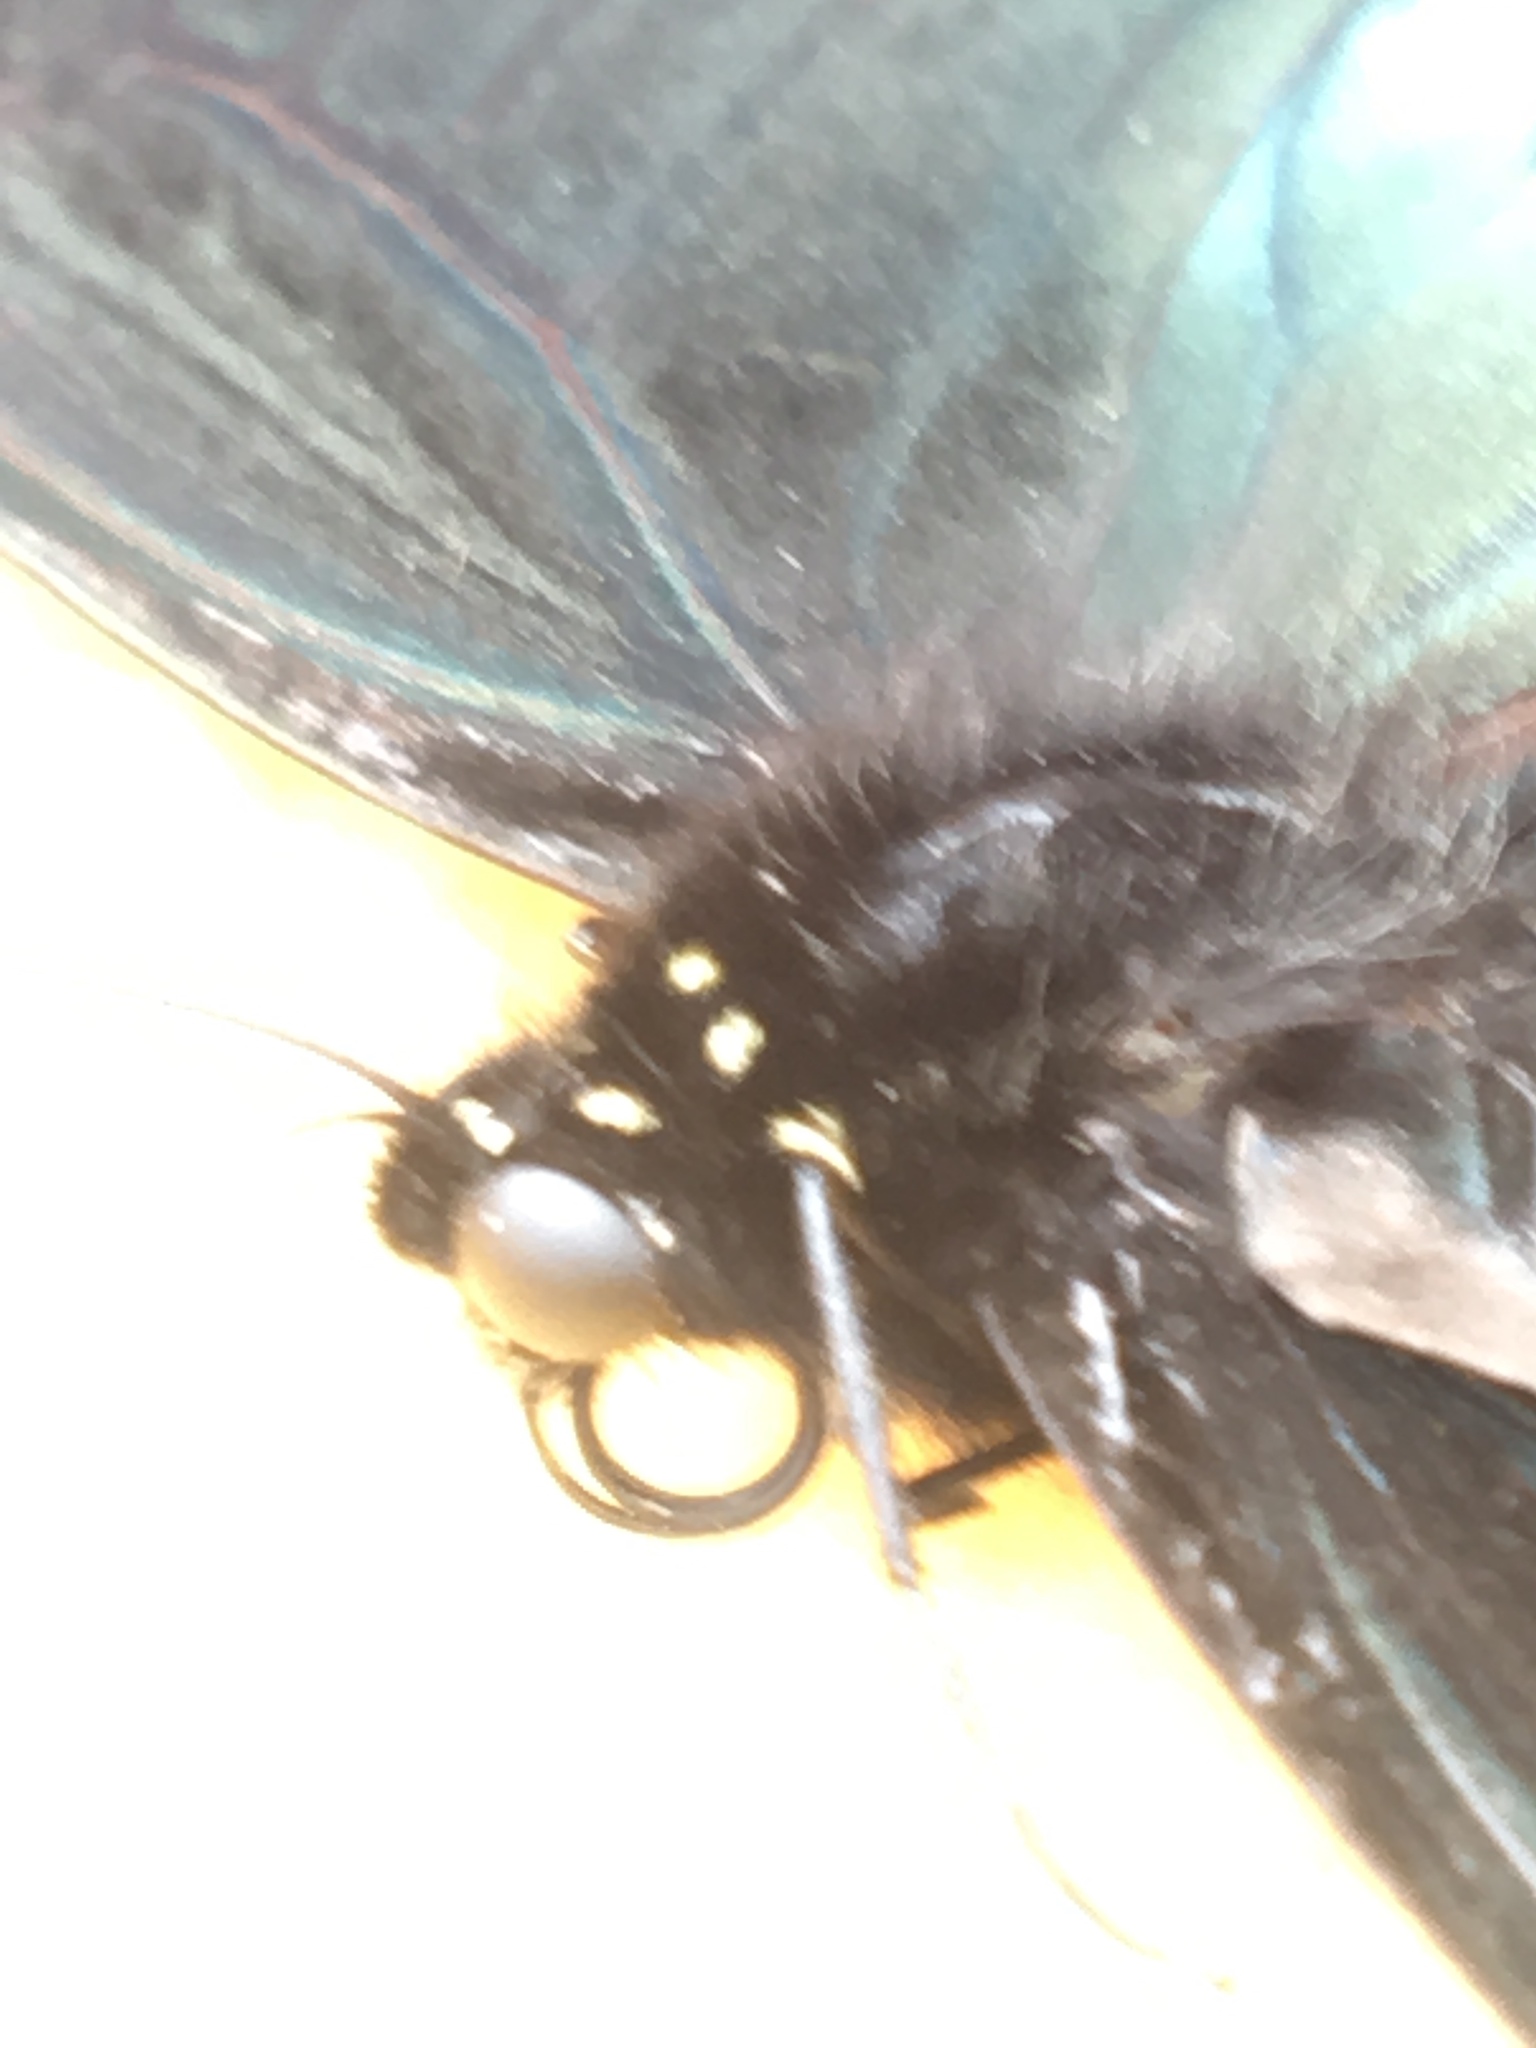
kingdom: Animalia
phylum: Arthropoda
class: Insecta
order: Lepidoptera
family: Papilionidae
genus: Battus
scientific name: Battus philenor
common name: Pipevine swallowtail
